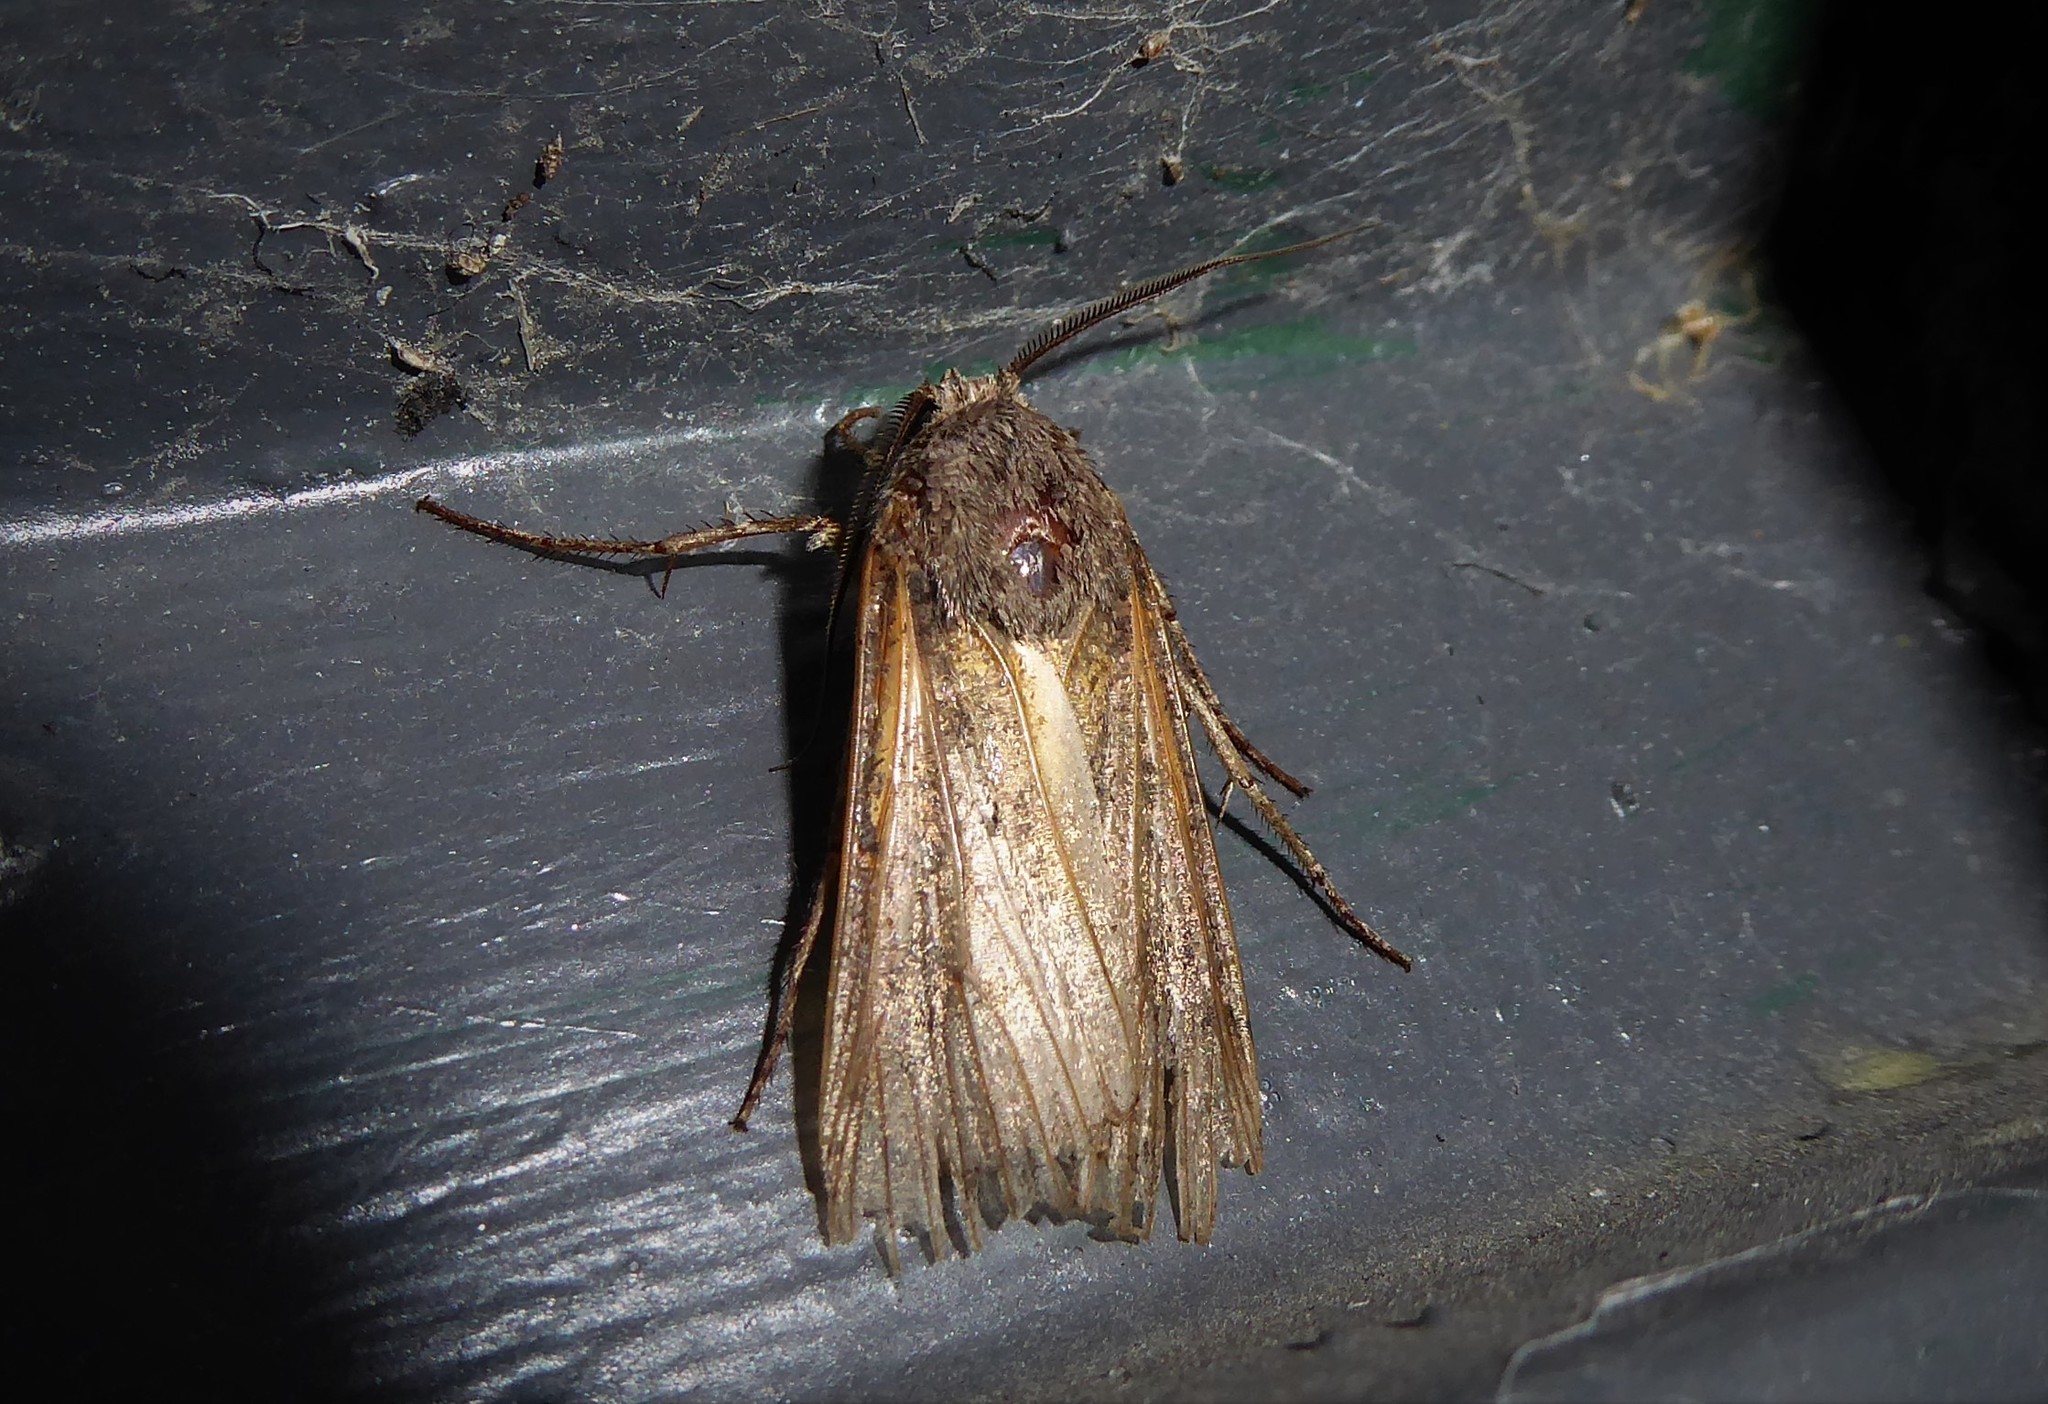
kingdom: Animalia
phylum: Arthropoda
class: Insecta
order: Lepidoptera
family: Noctuidae
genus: Agrotis
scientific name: Agrotis ipsilon
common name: Dark sword-grass
